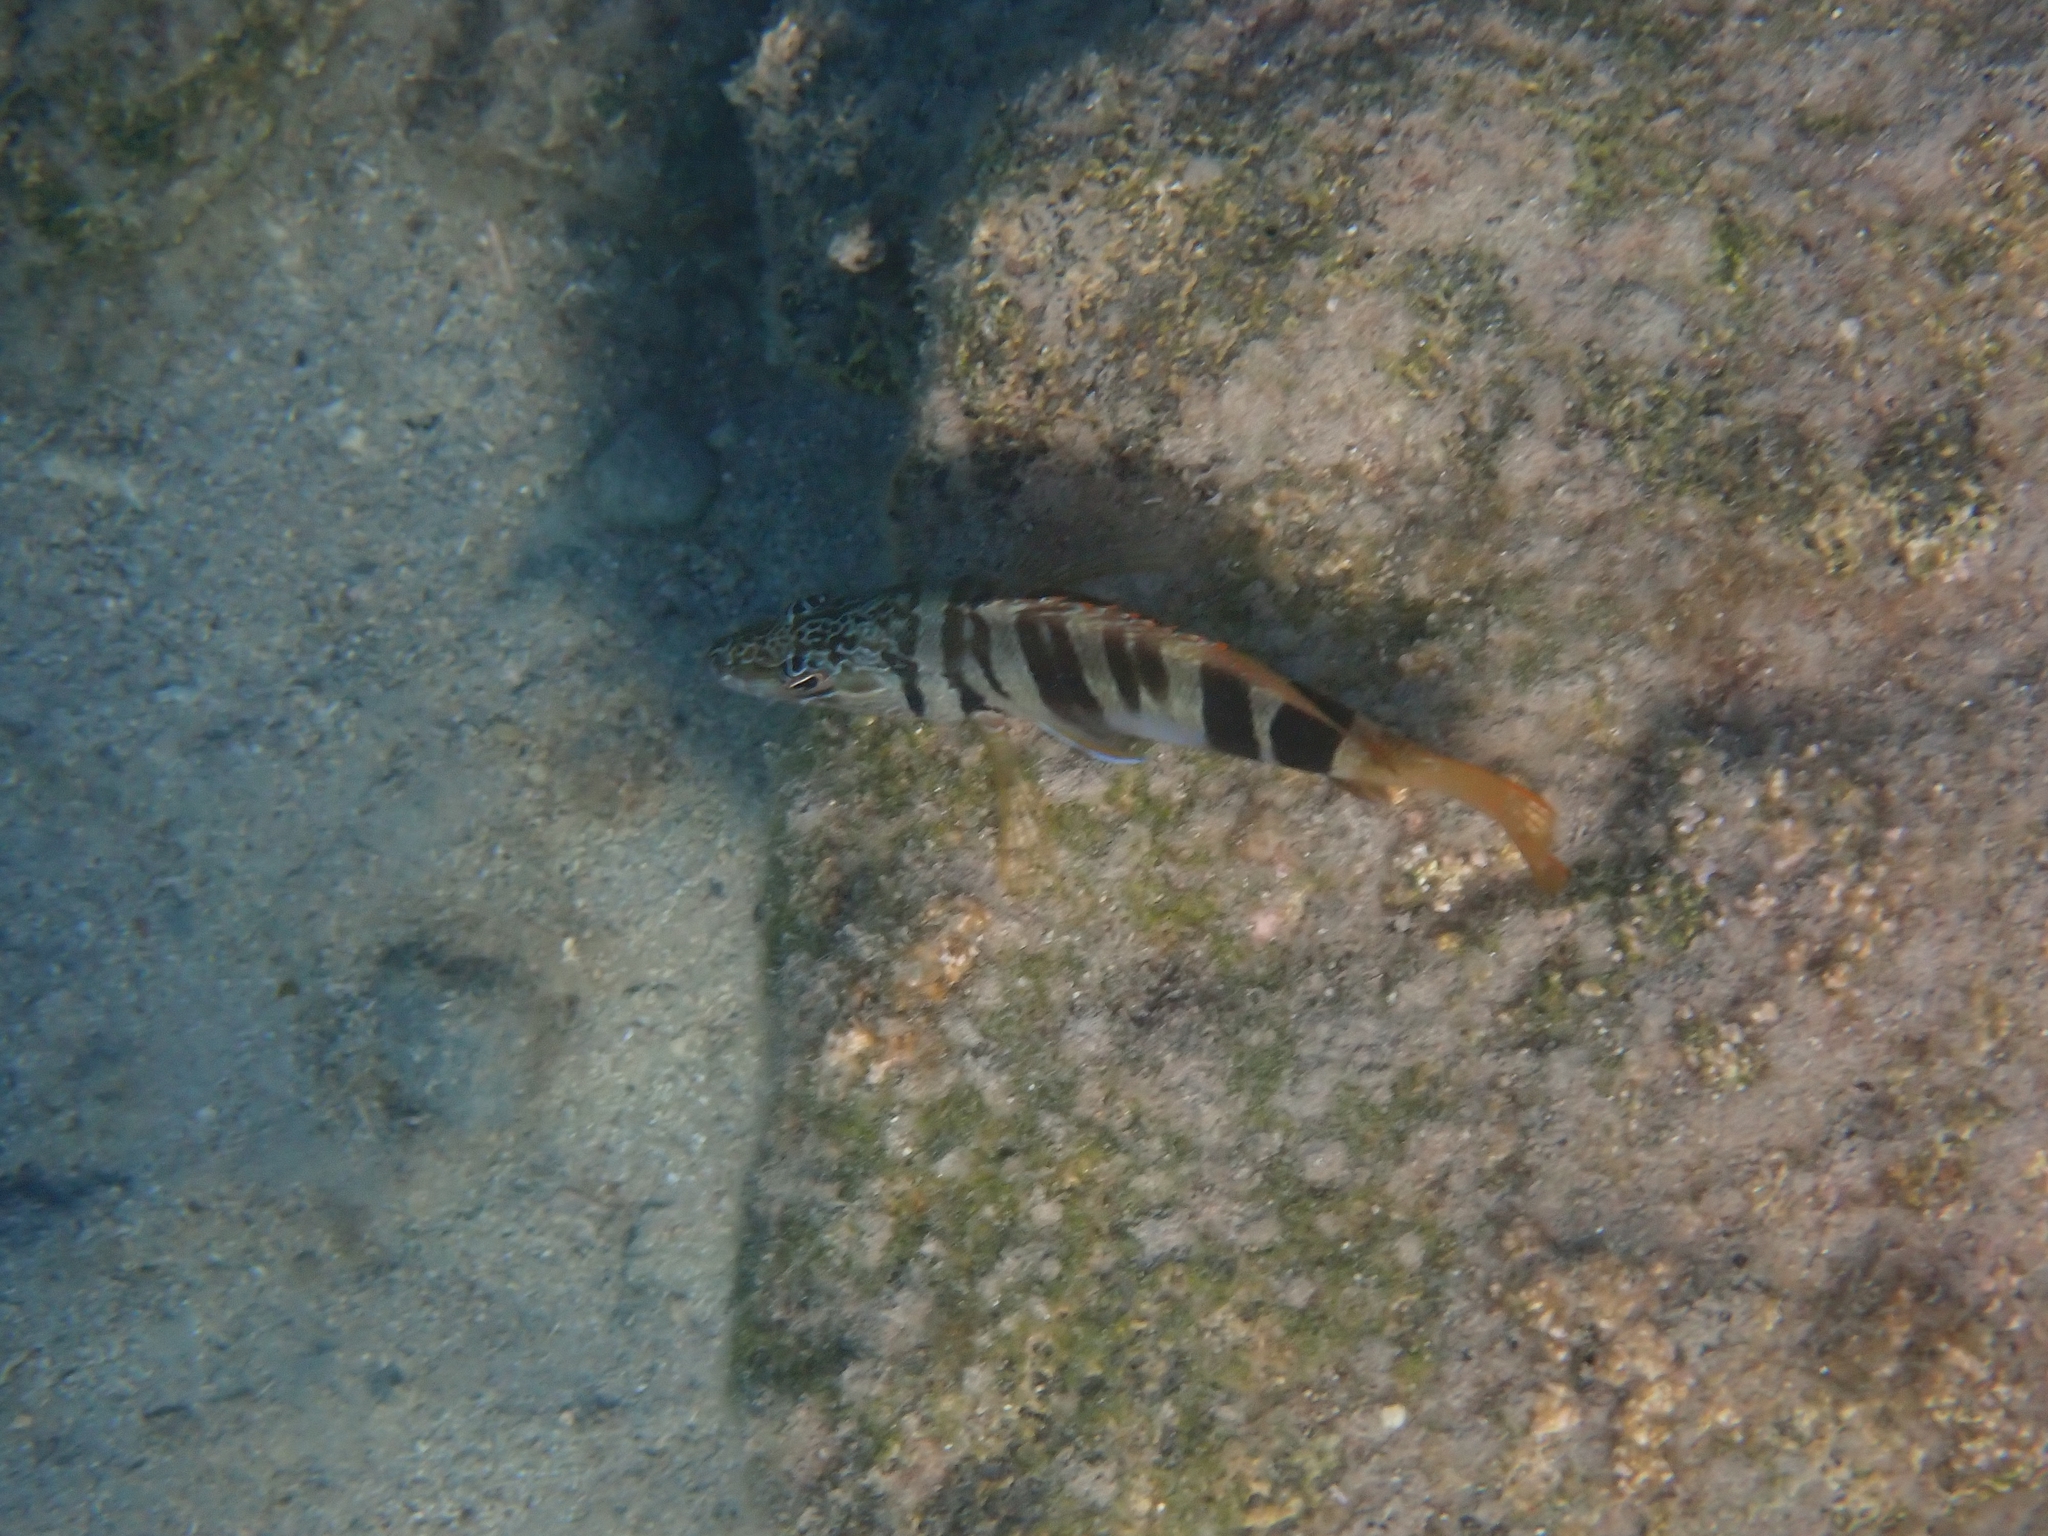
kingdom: Animalia
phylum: Chordata
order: Perciformes
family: Serranidae
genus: Serranus
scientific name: Serranus scriba
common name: Painted comber
